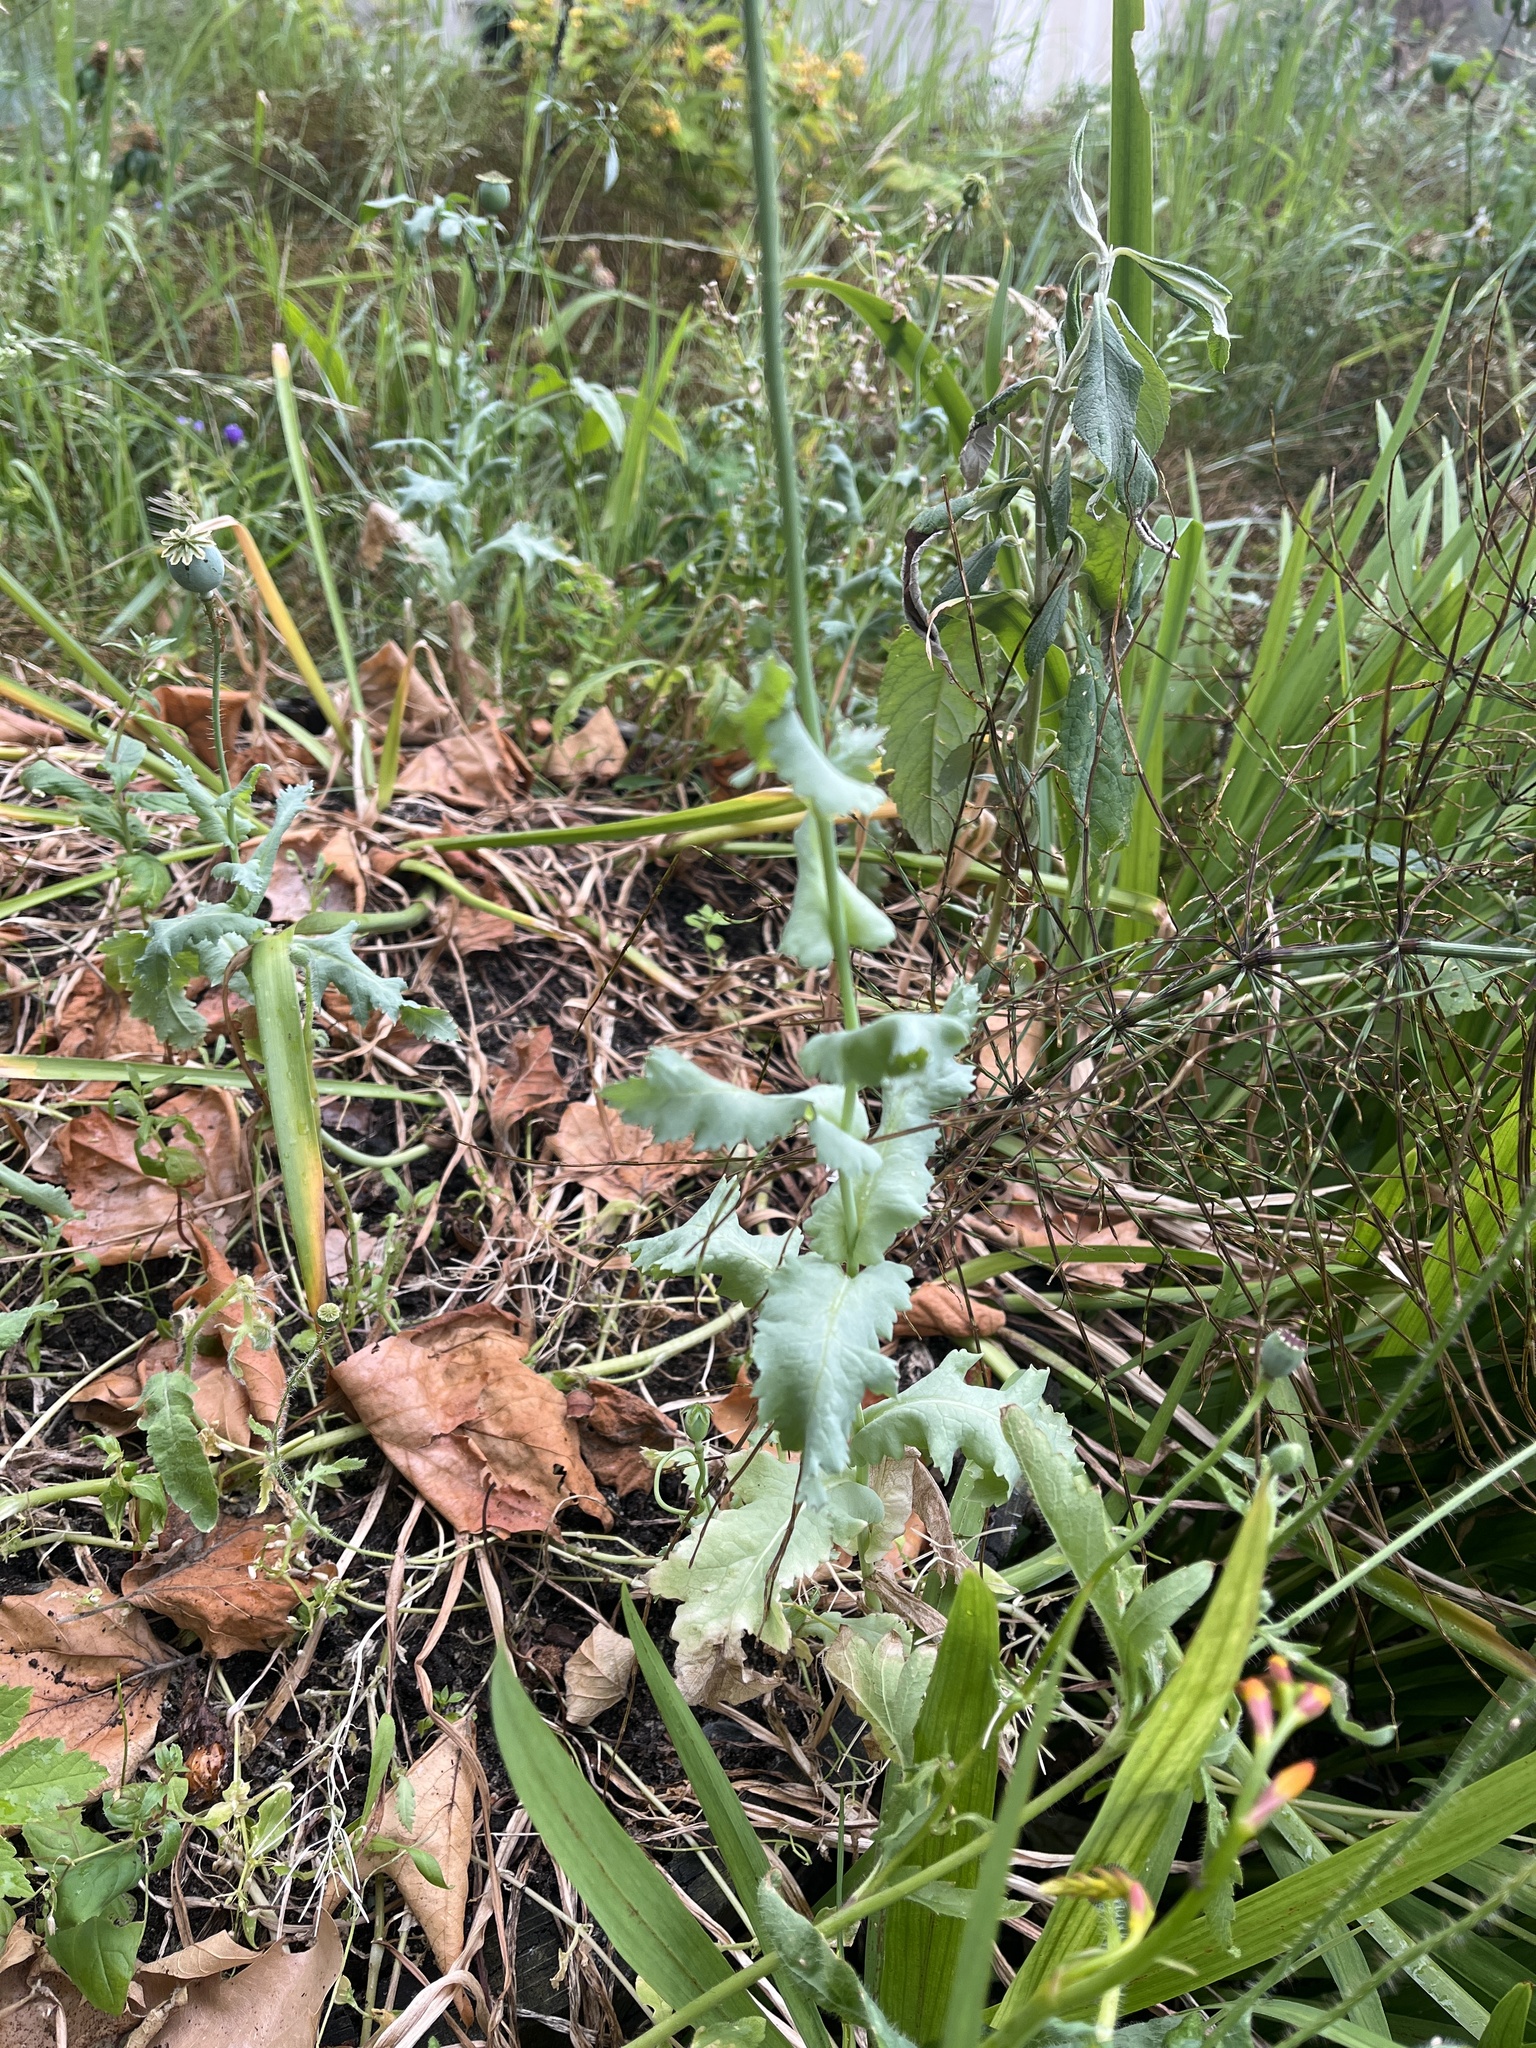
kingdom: Plantae
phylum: Tracheophyta
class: Magnoliopsida
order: Ranunculales
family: Papaveraceae
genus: Papaver
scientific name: Papaver somniferum
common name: Opium poppy
